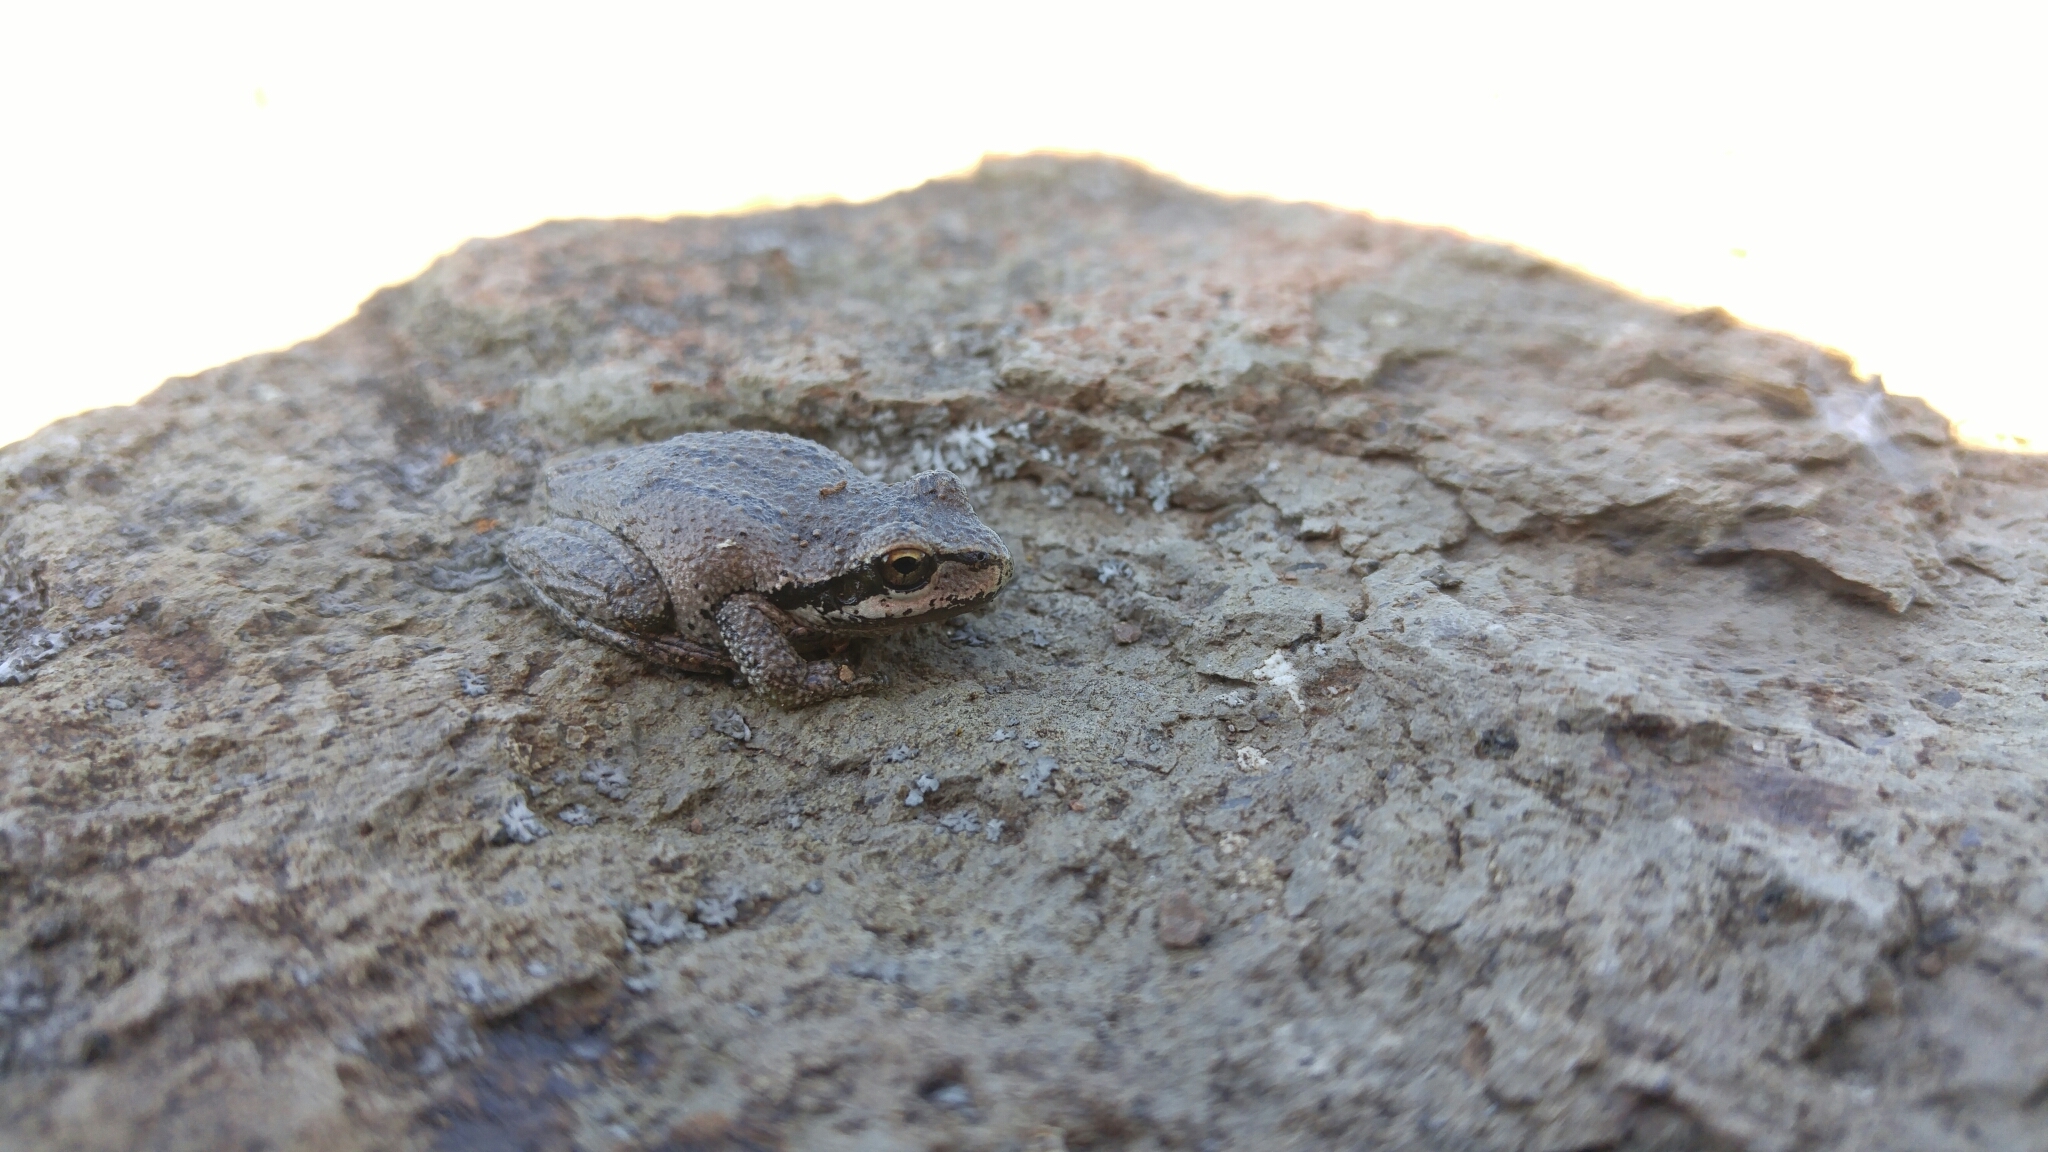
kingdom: Animalia
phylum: Chordata
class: Amphibia
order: Anura
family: Hylidae
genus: Pseudacris
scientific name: Pseudacris regilla
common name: Pacific chorus frog
